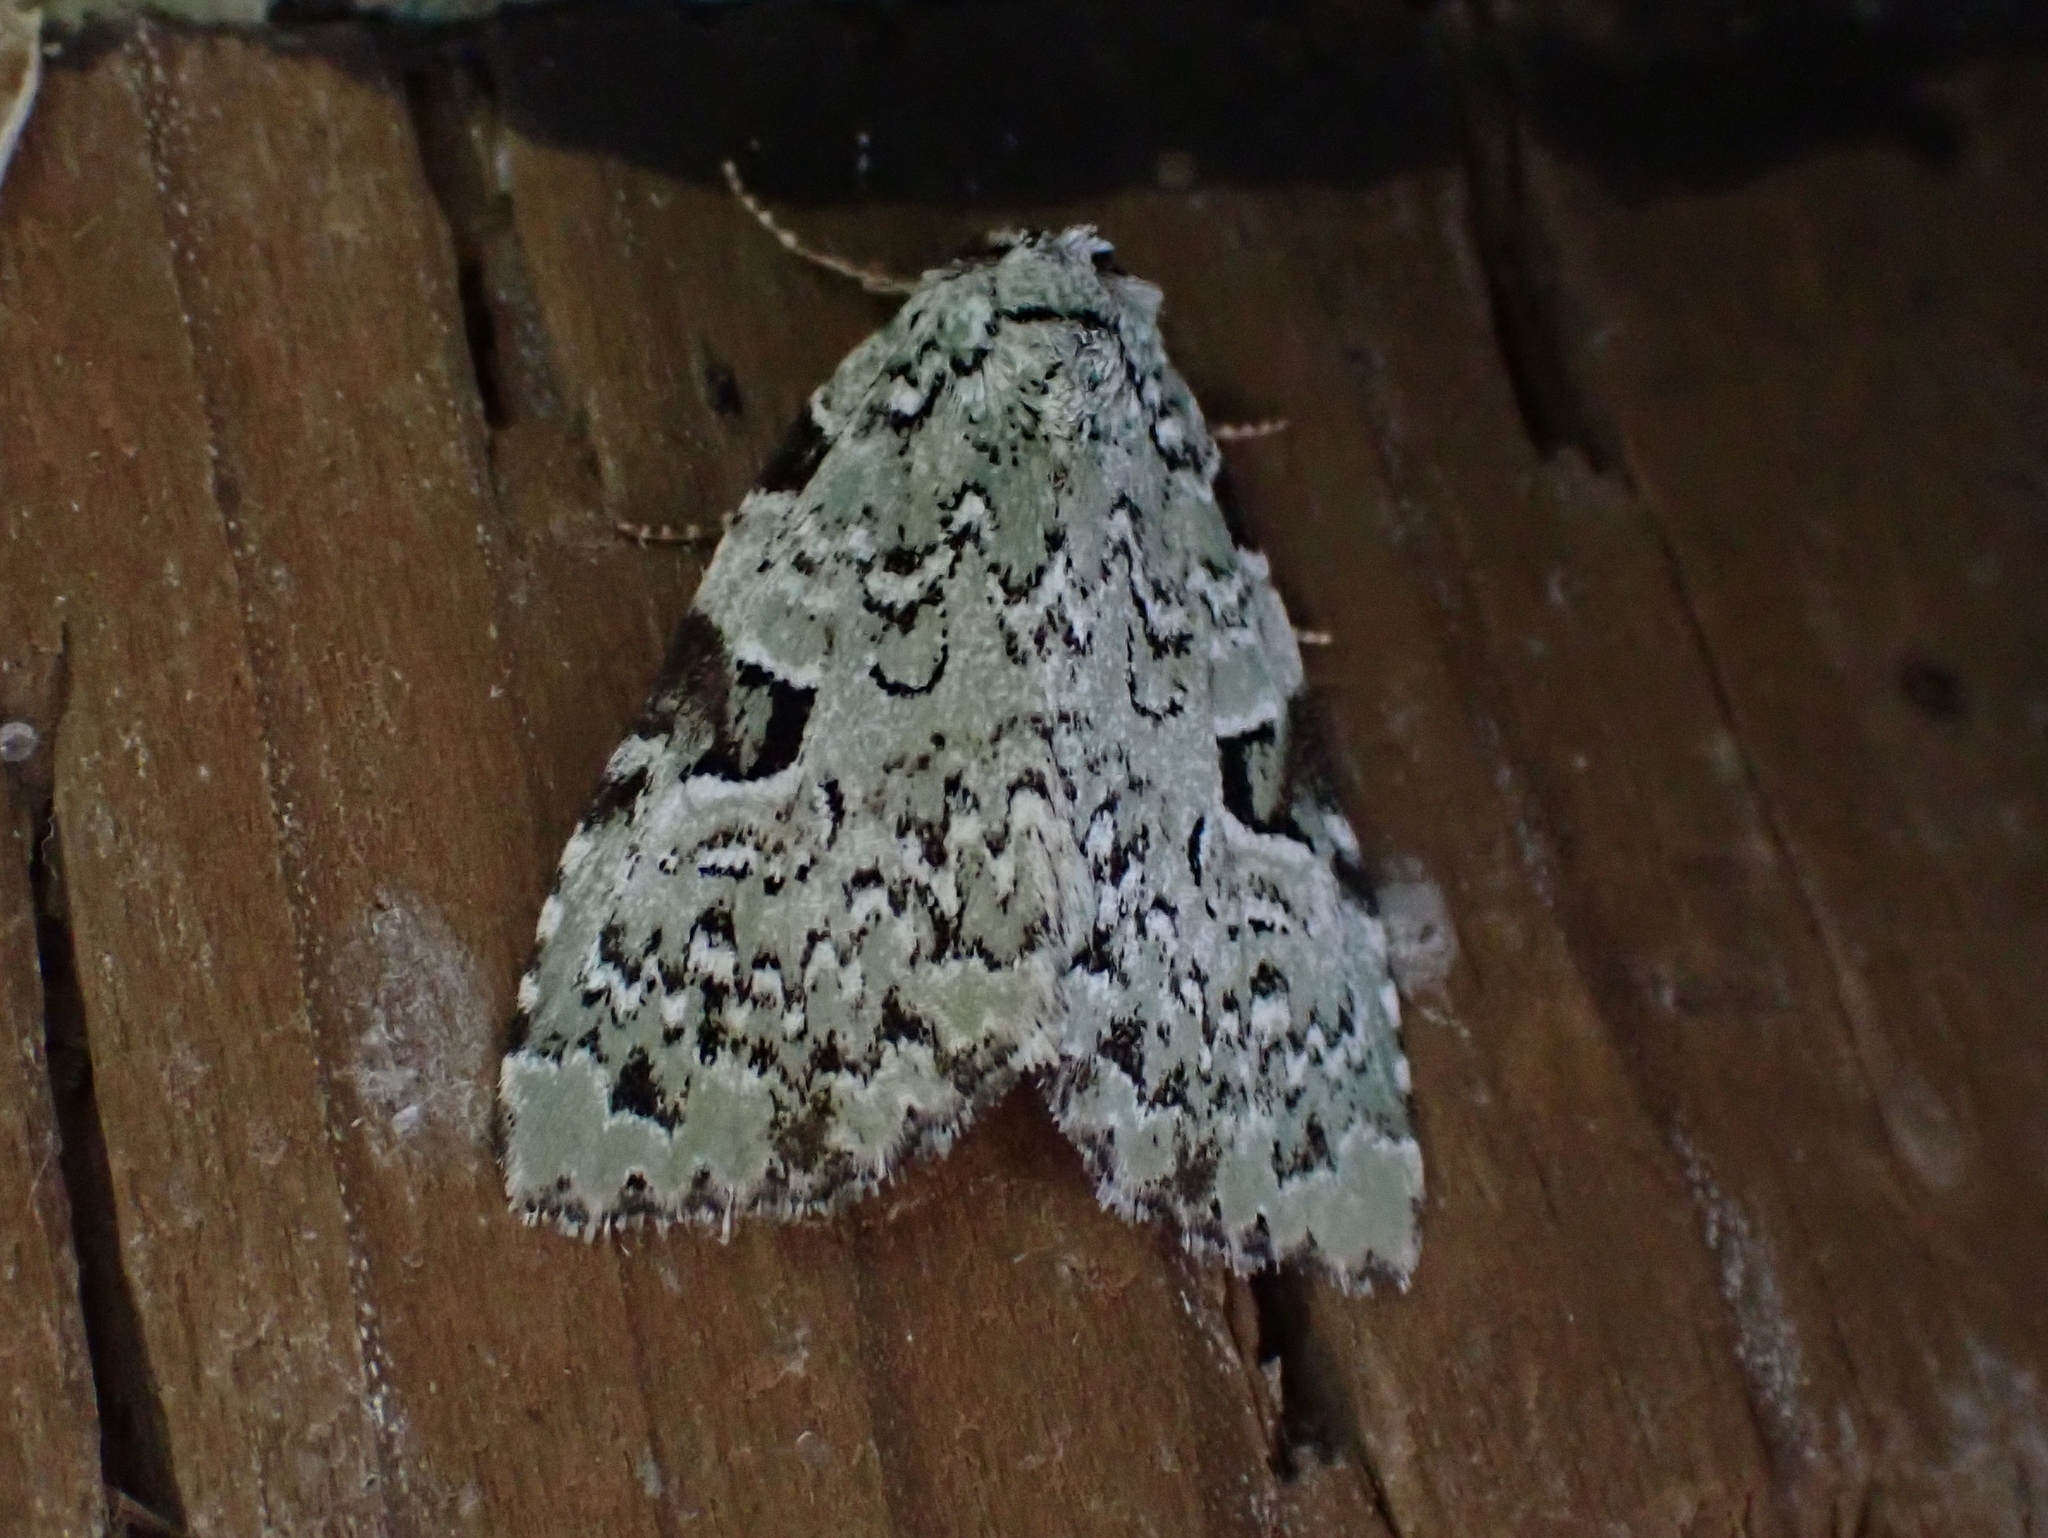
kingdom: Animalia
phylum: Arthropoda
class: Insecta
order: Lepidoptera
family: Noctuidae
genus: Leuconycta
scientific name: Leuconycta diphteroides
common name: Green leuconycta moth
